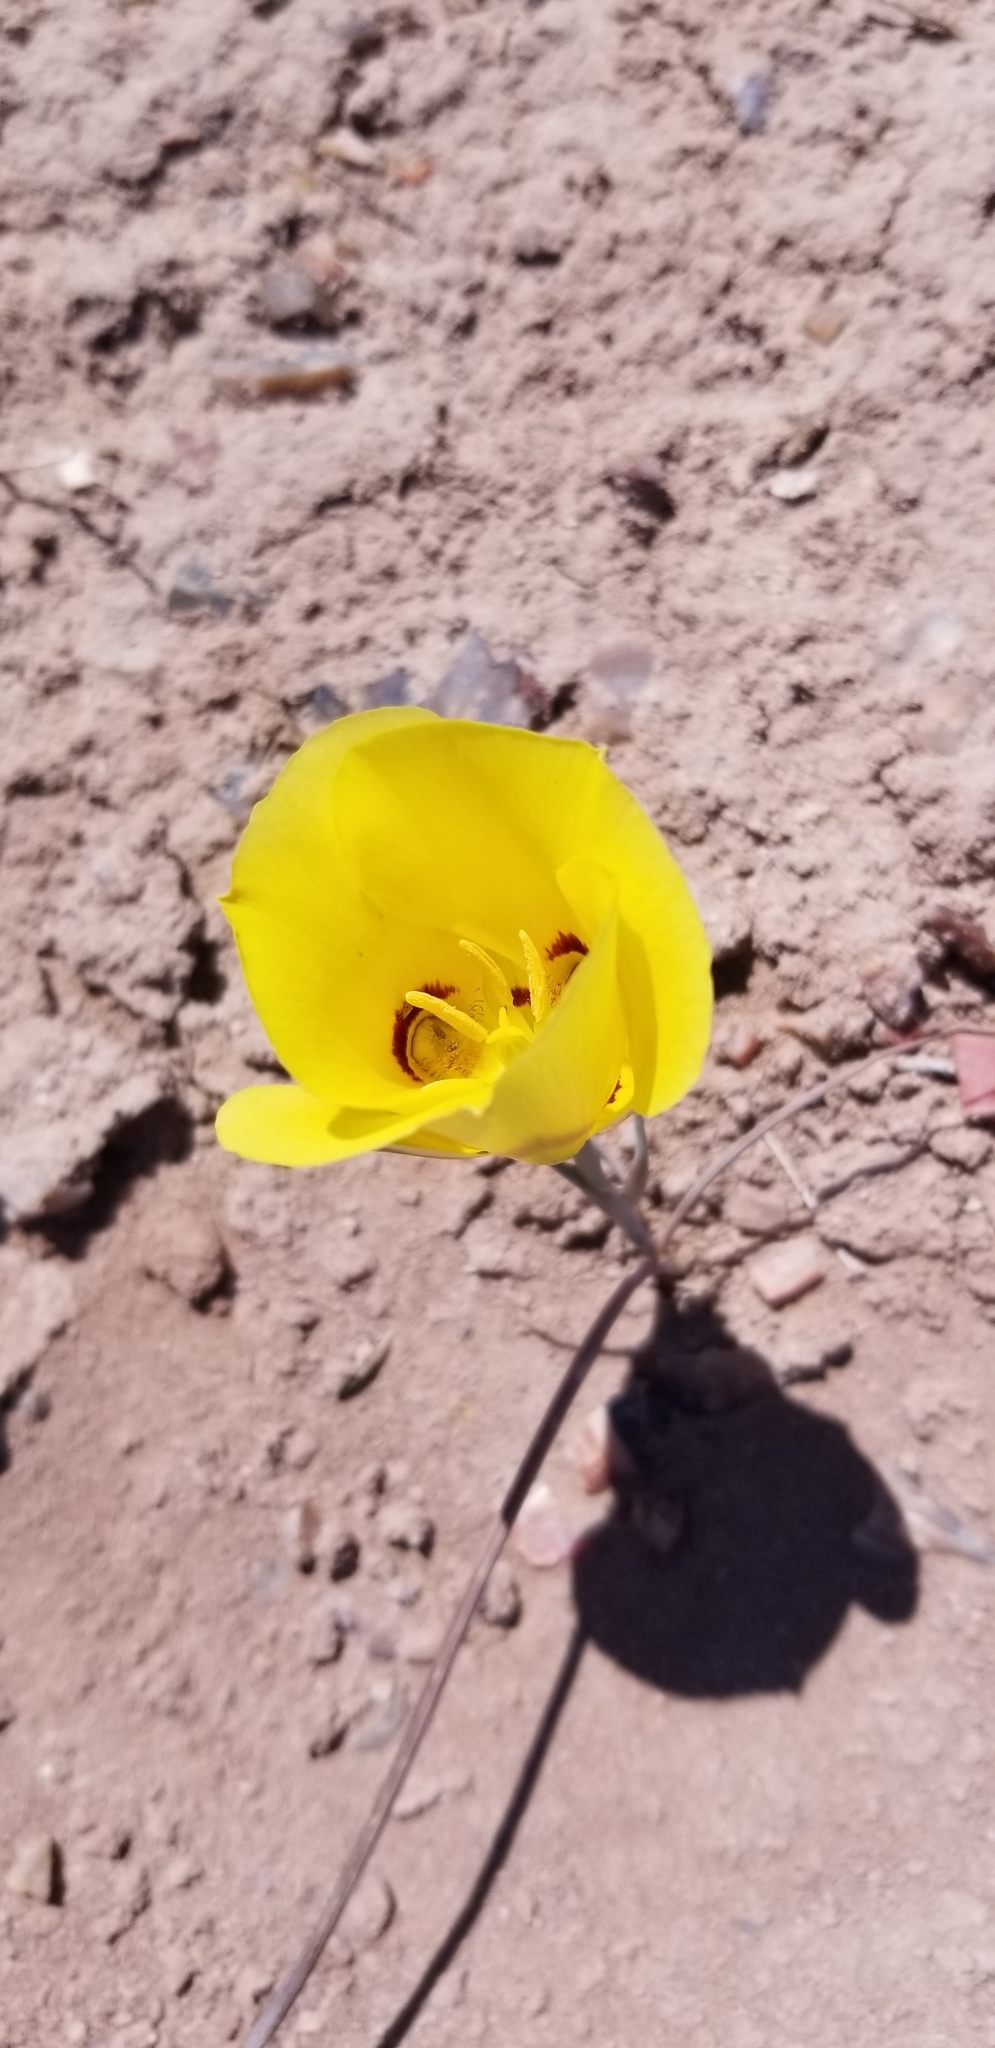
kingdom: Plantae
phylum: Tracheophyta
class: Liliopsida
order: Liliales
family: Liliaceae
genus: Calochortus
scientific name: Calochortus aureus
